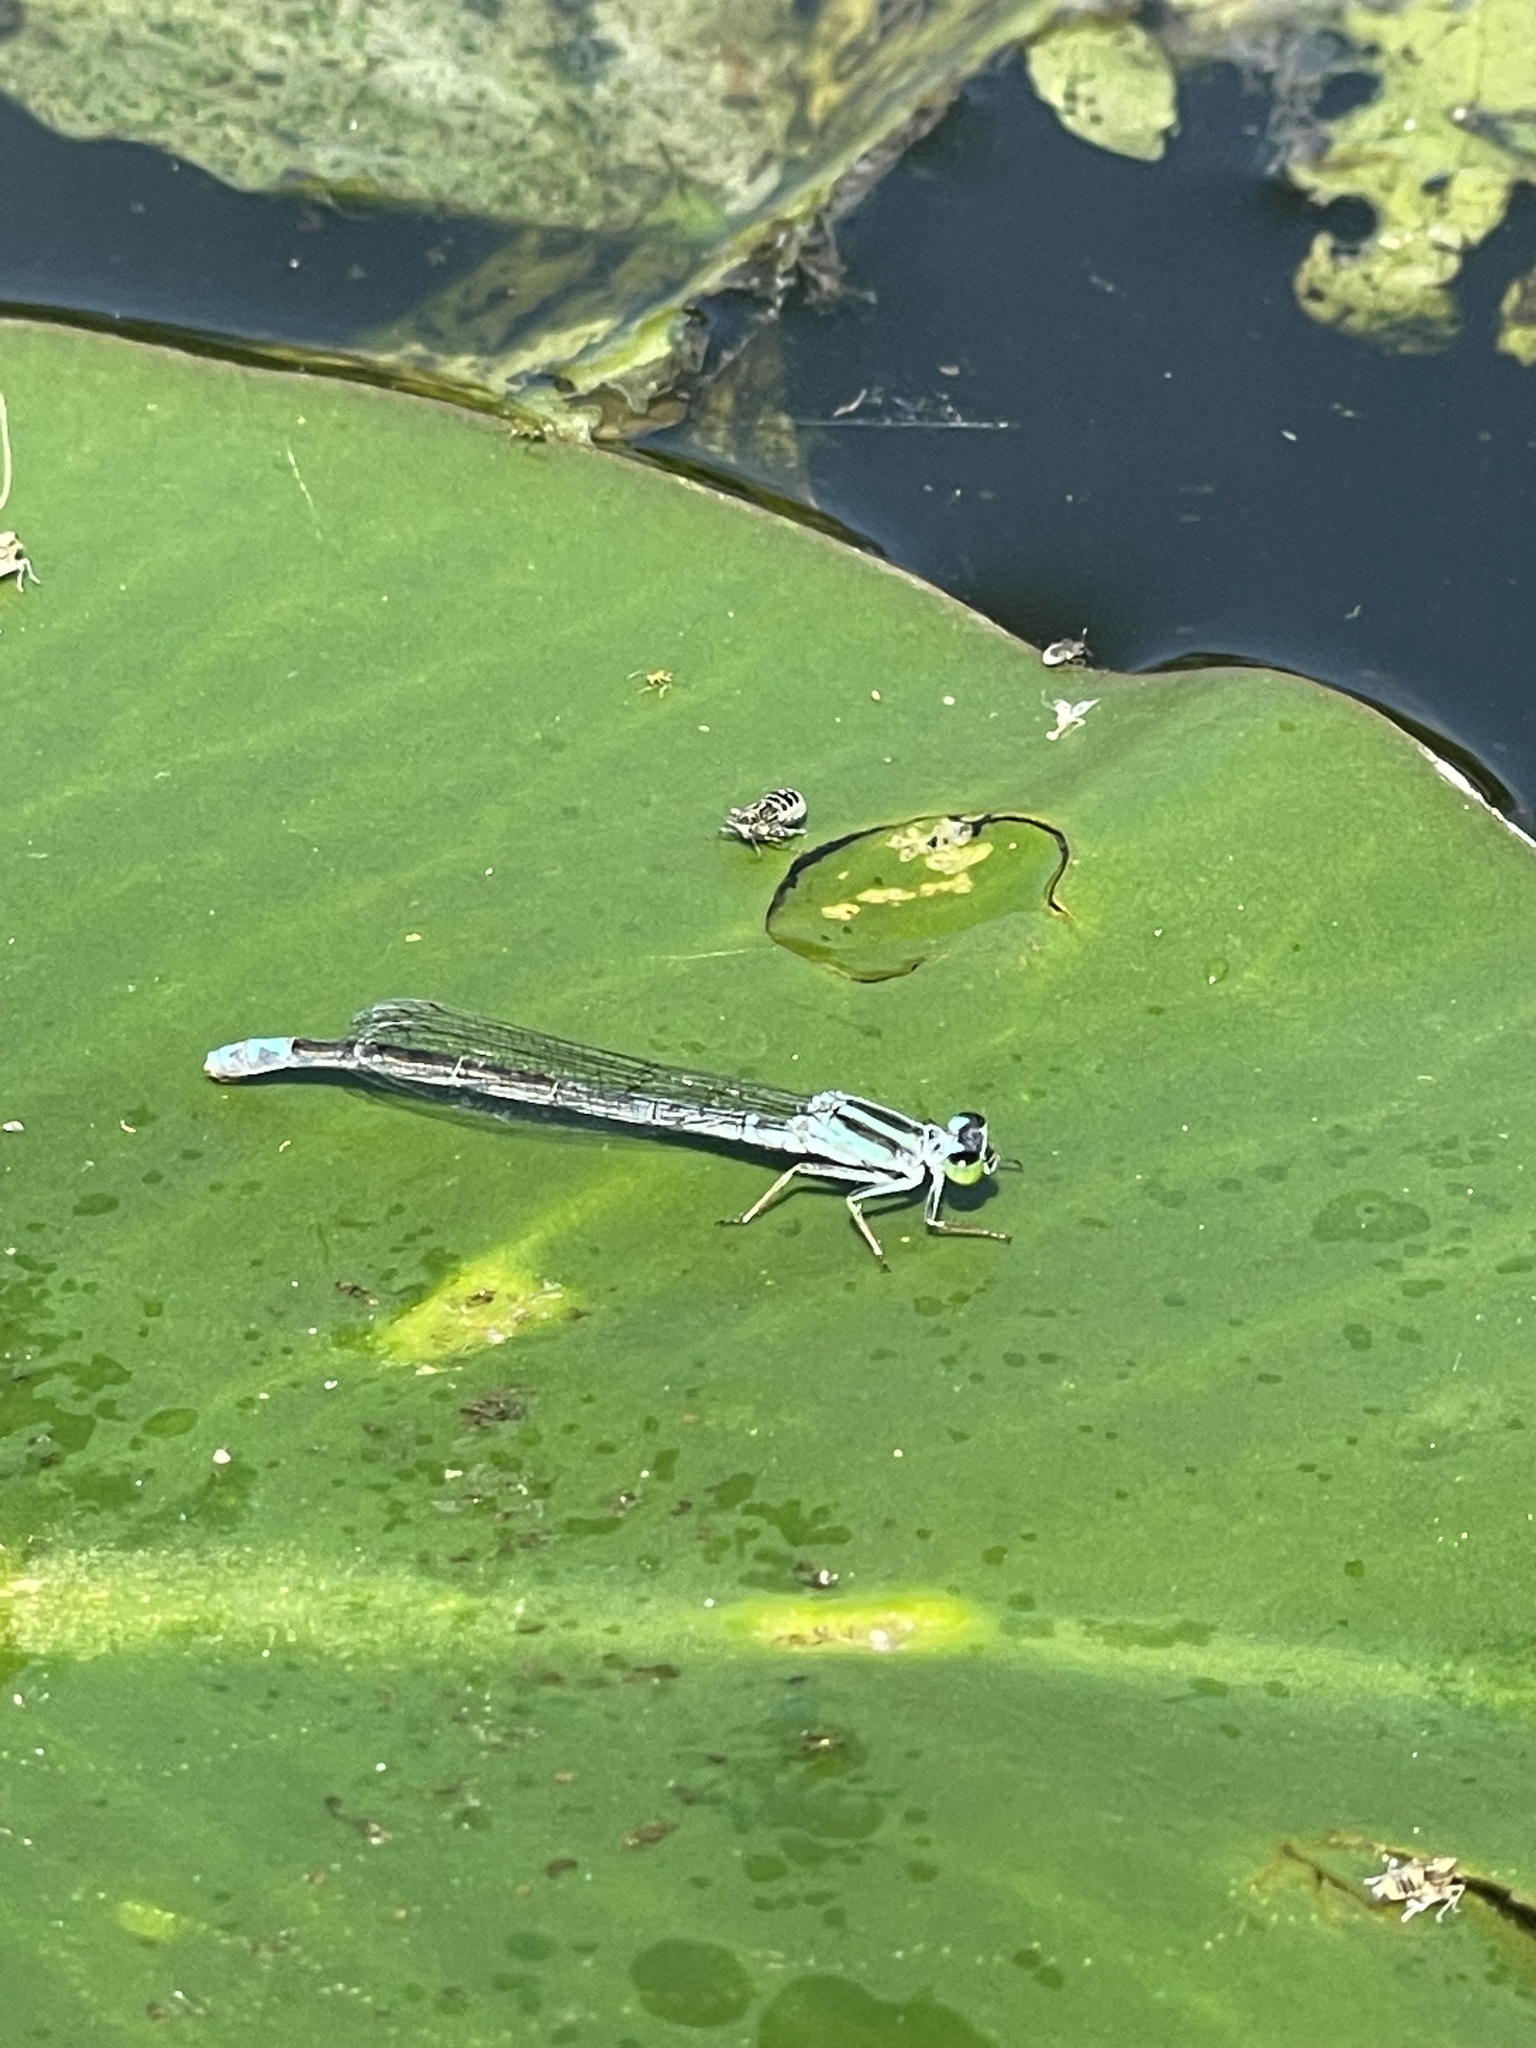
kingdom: Animalia
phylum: Arthropoda
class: Insecta
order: Odonata
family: Coenagrionidae
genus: Ischnura
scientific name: Ischnura kellicotti
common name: Lilypad forktail
